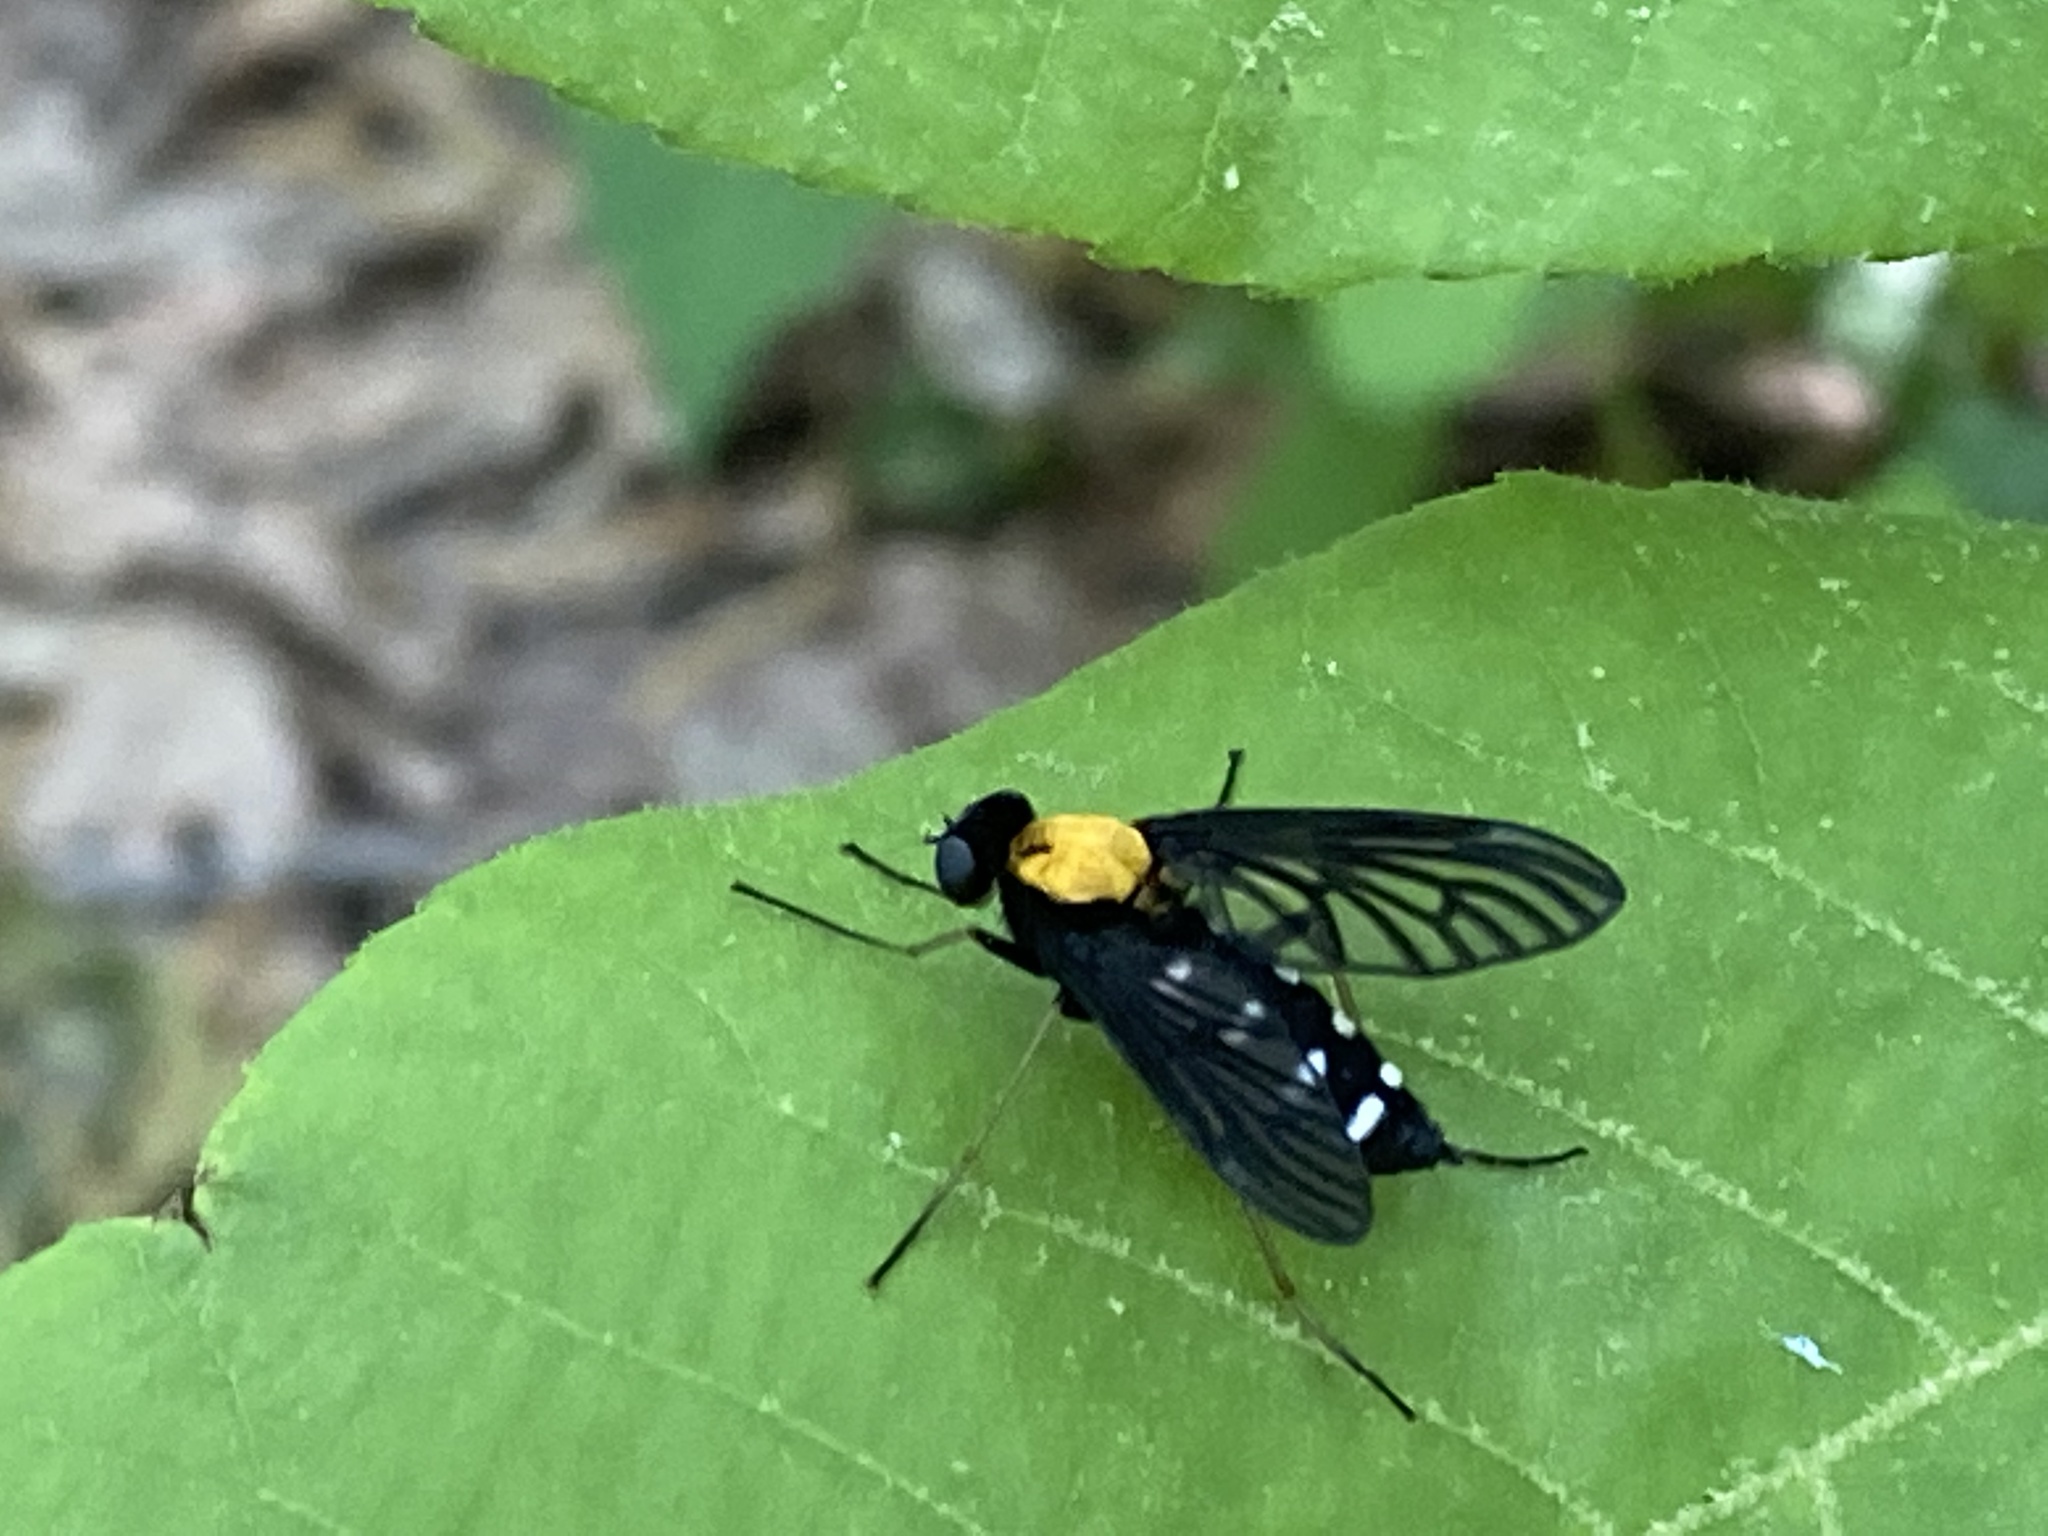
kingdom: Animalia
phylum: Arthropoda
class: Insecta
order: Diptera
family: Rhagionidae
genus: Chrysopilus
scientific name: Chrysopilus thoracicus
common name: Golden-backed snipe fly
